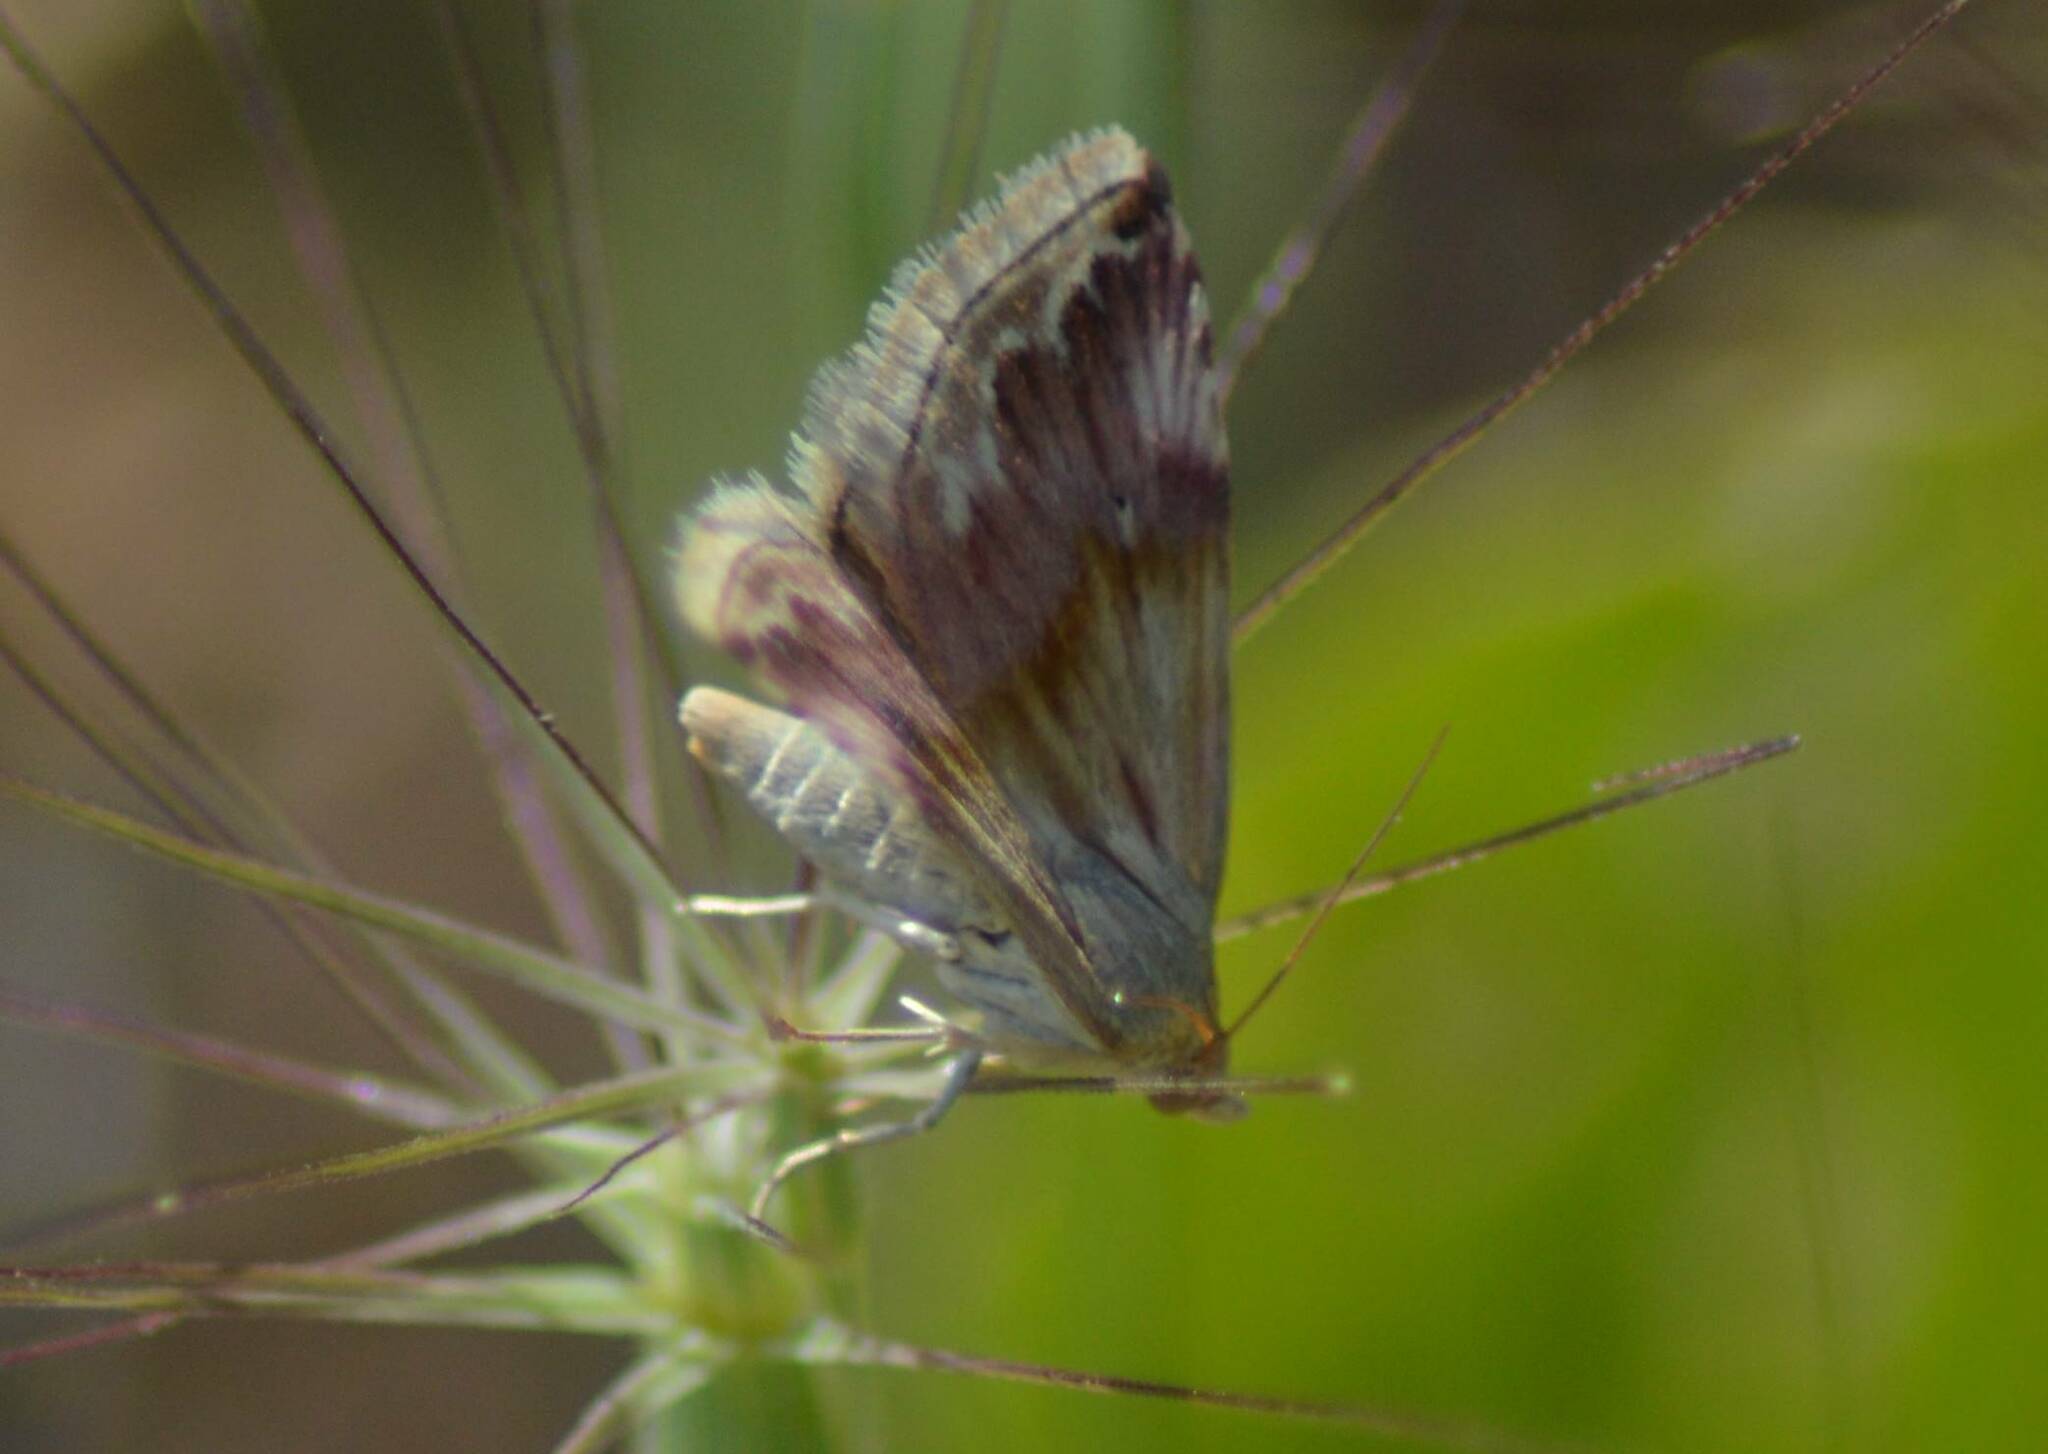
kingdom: Animalia
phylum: Arthropoda
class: Insecta
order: Lepidoptera
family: Noctuidae
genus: Eublemma
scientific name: Eublemma ostrina
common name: Purple marbled
